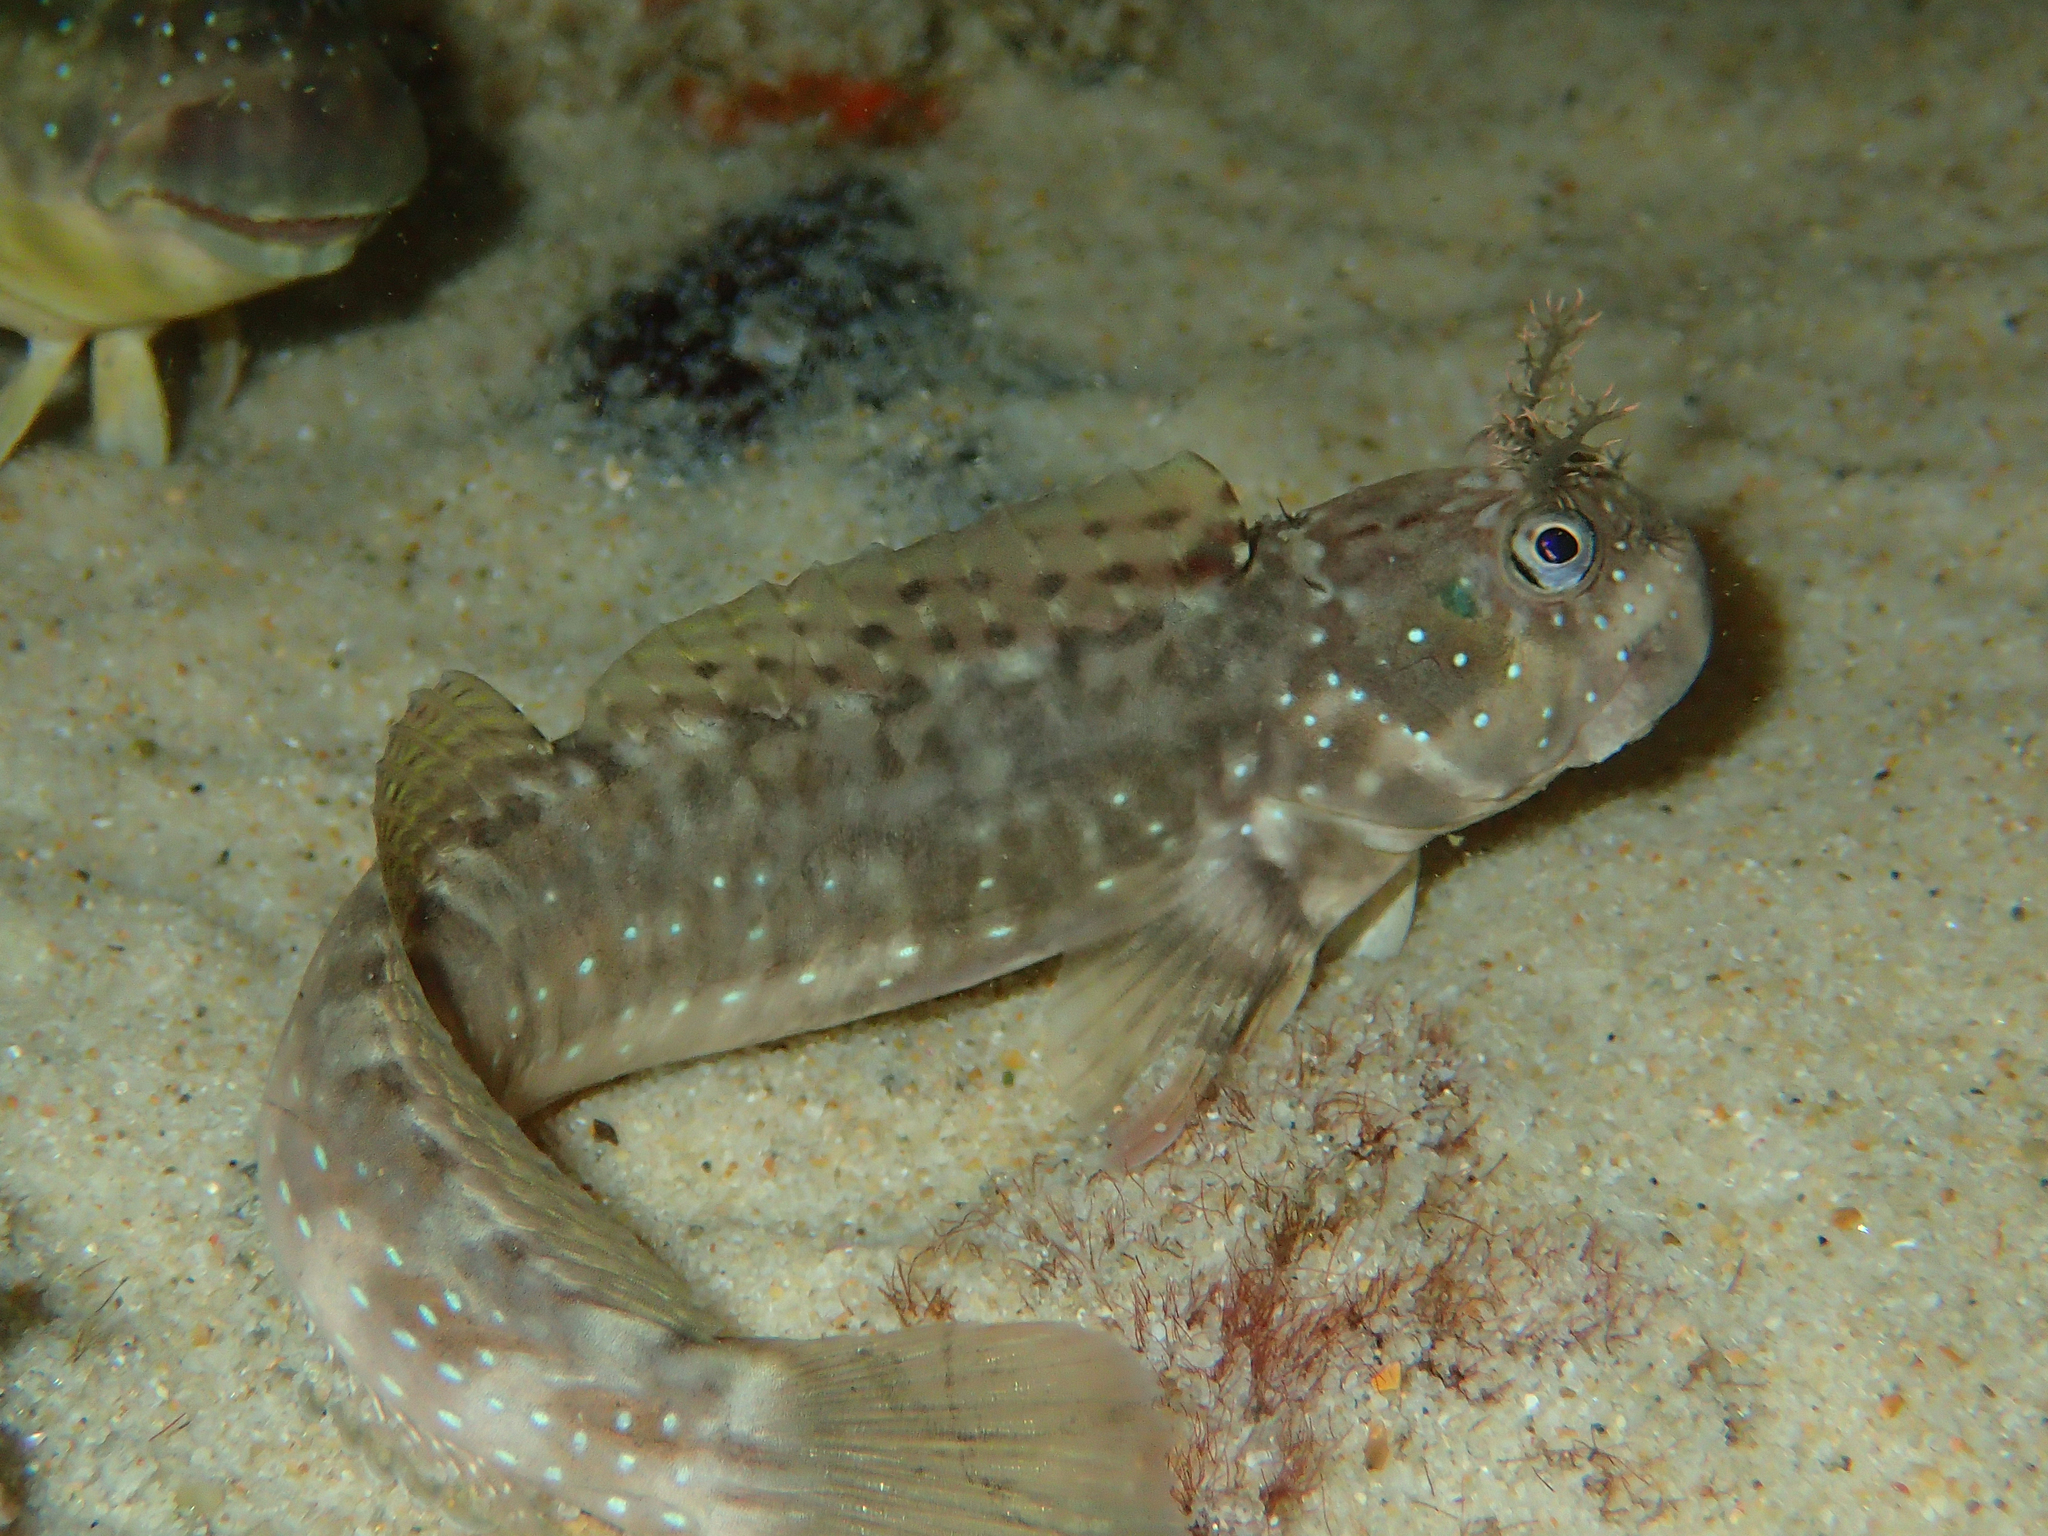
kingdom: Animalia
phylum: Chordata
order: Perciformes
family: Blenniidae
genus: Istiblennius
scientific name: Istiblennius meleagris
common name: Peacock rockskipper
